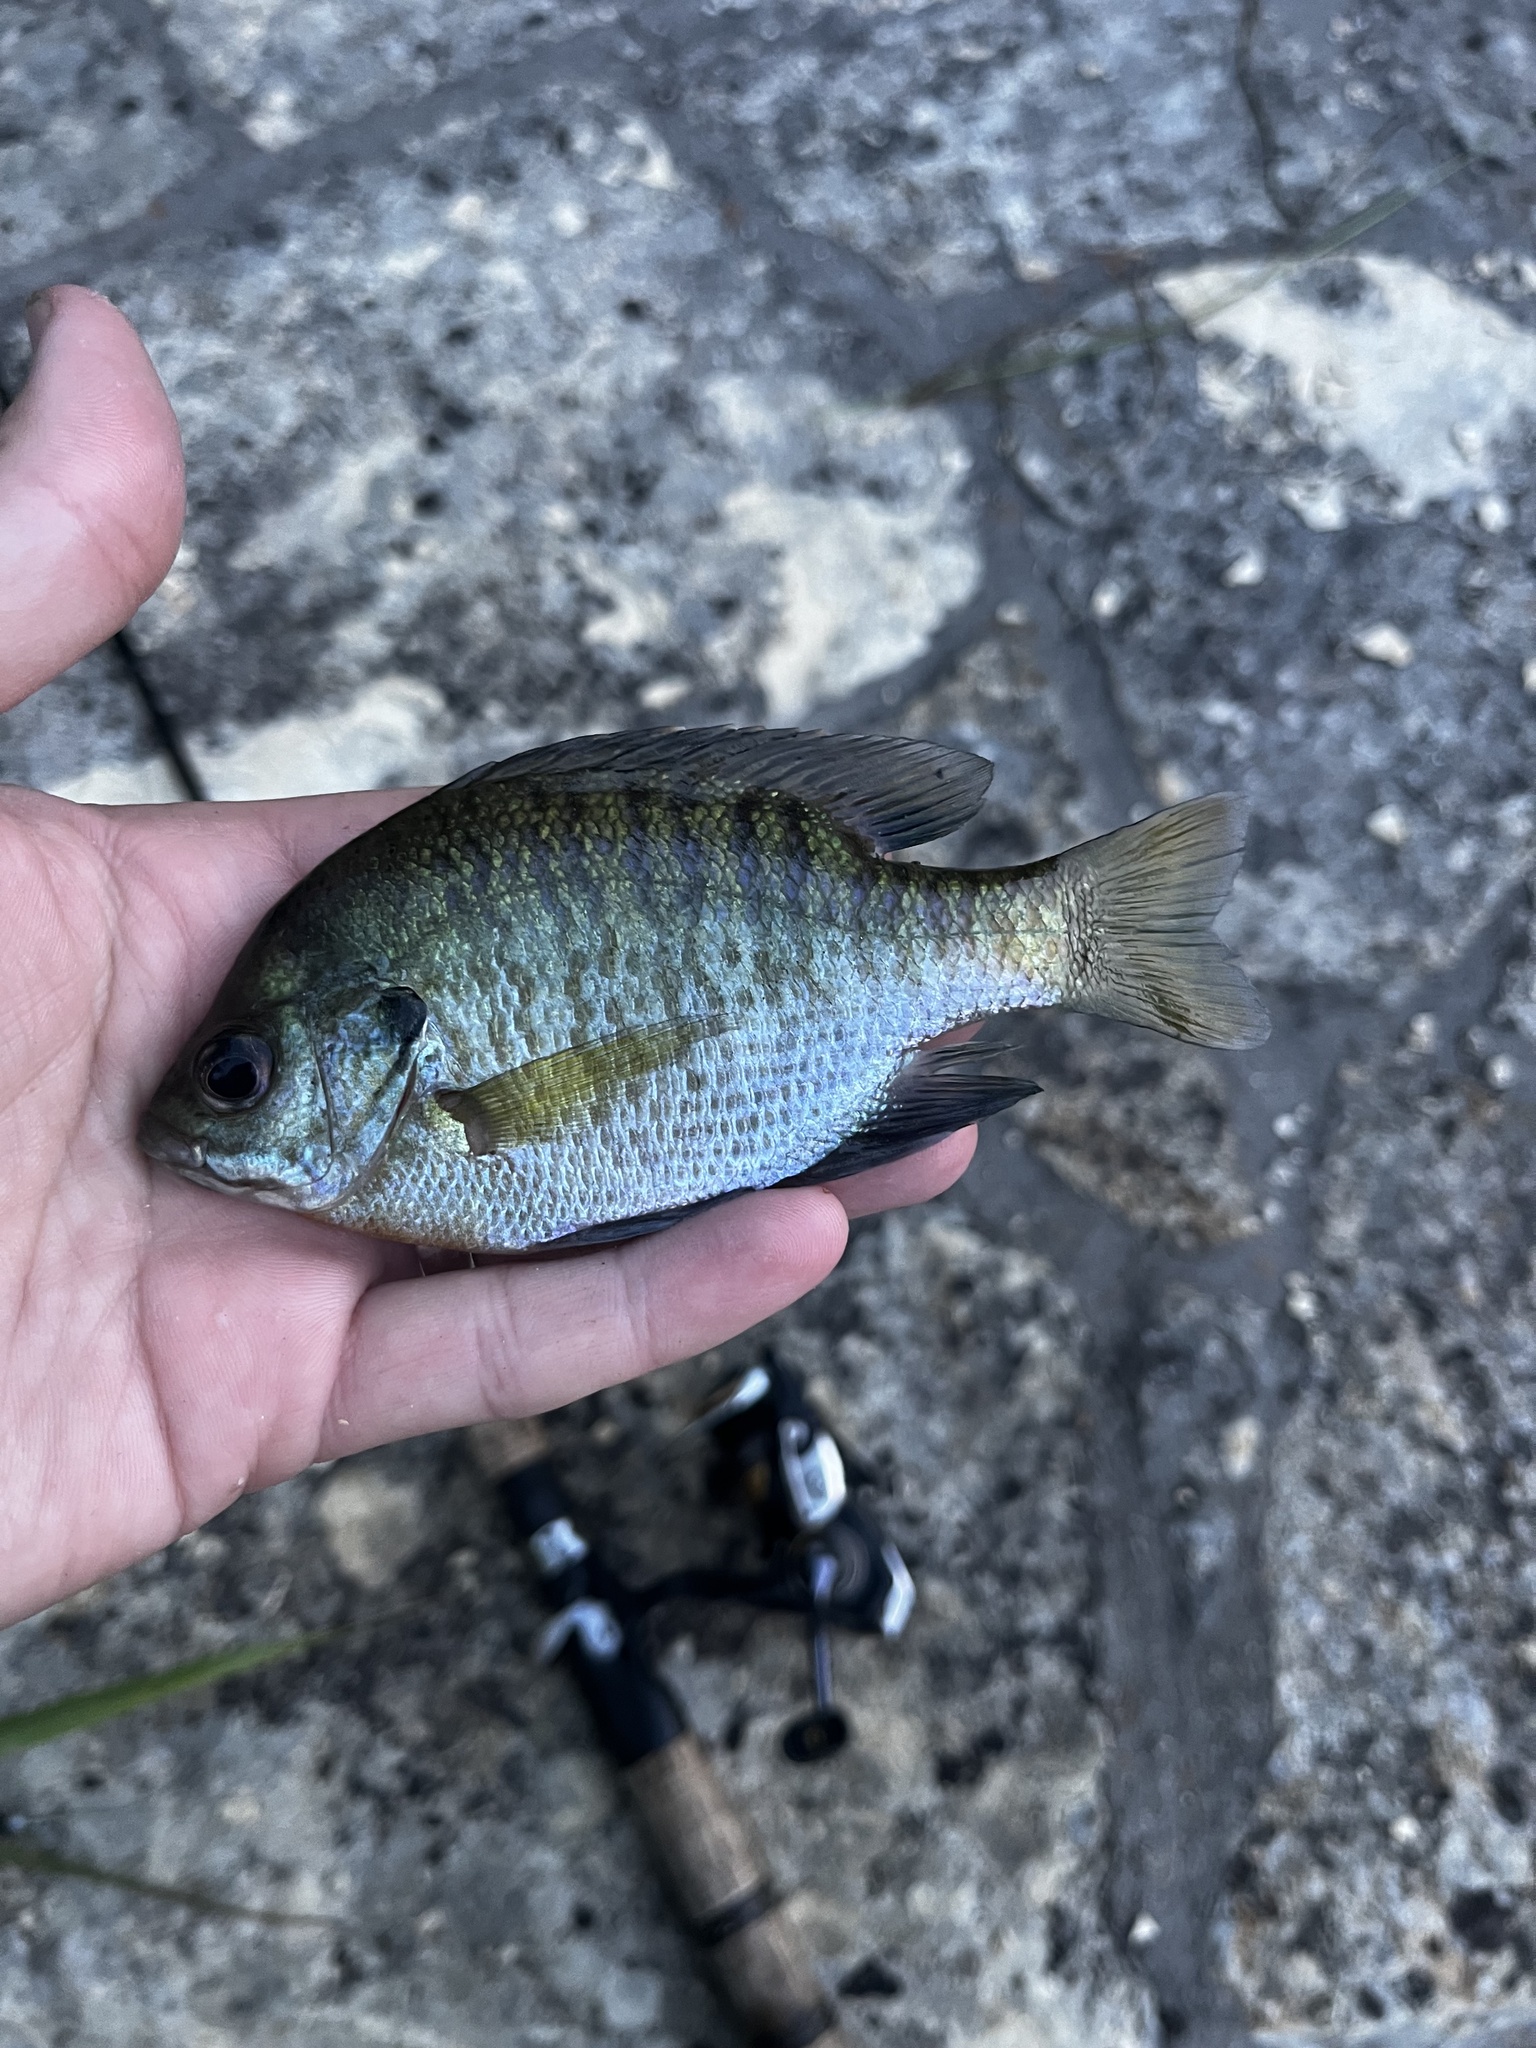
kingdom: Animalia
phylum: Chordata
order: Perciformes
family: Centrarchidae
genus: Lepomis
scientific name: Lepomis macrochirus
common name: Bluegill
